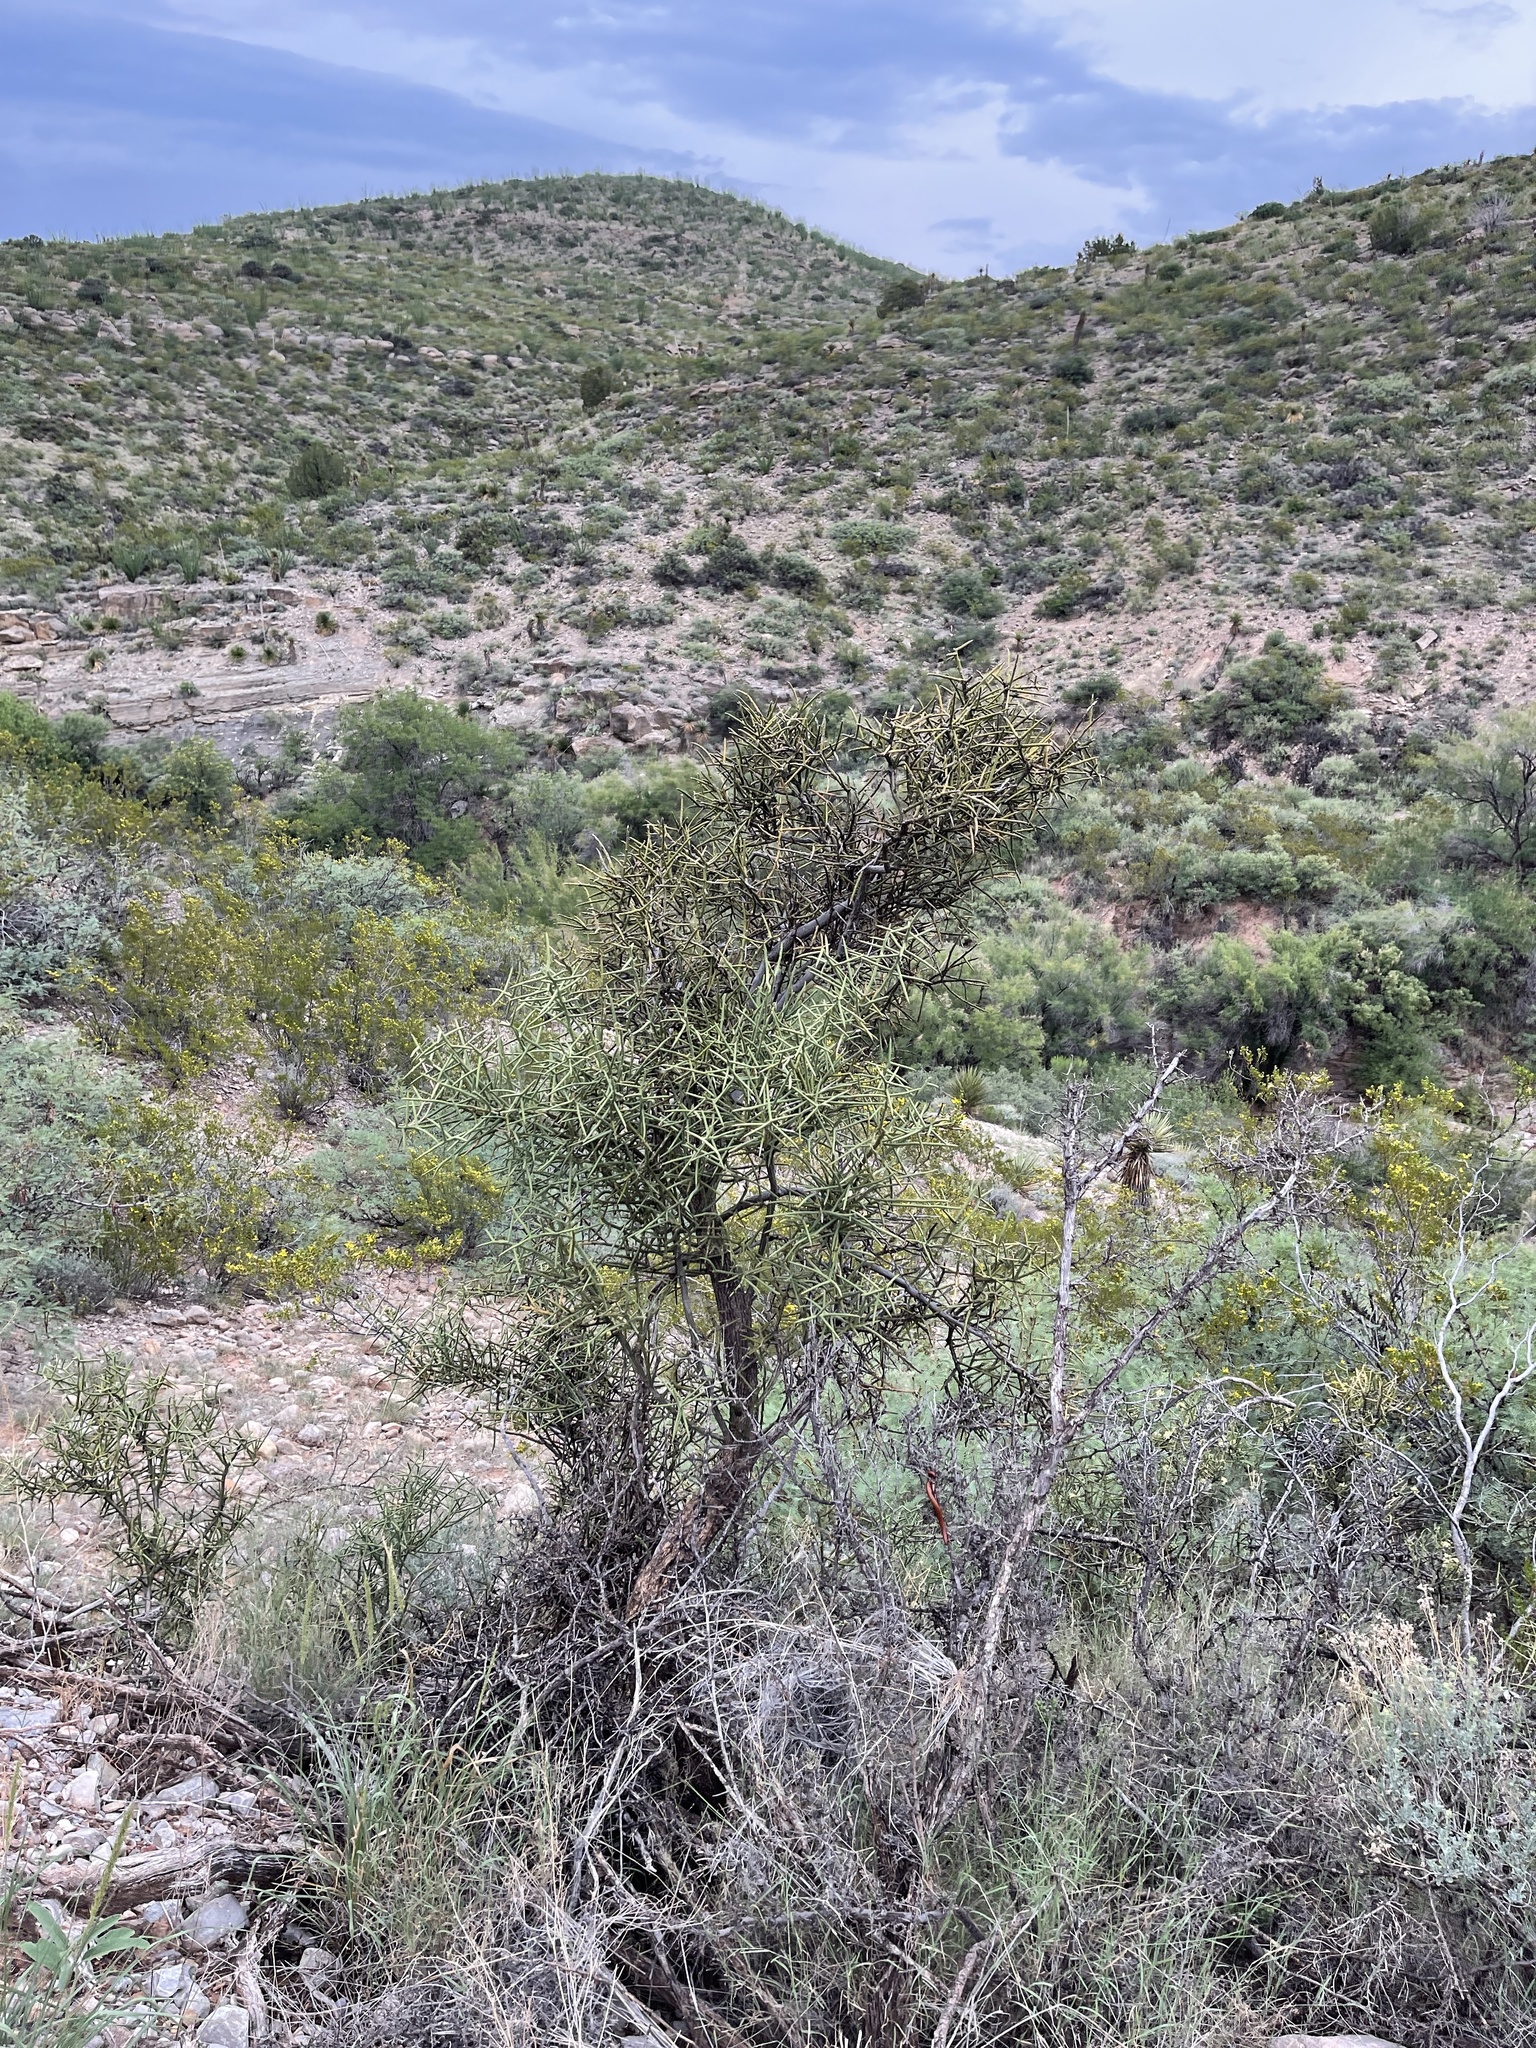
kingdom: Plantae
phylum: Tracheophyta
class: Magnoliopsida
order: Brassicales
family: Koeberliniaceae
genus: Koeberlinia
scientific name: Koeberlinia spinosa
